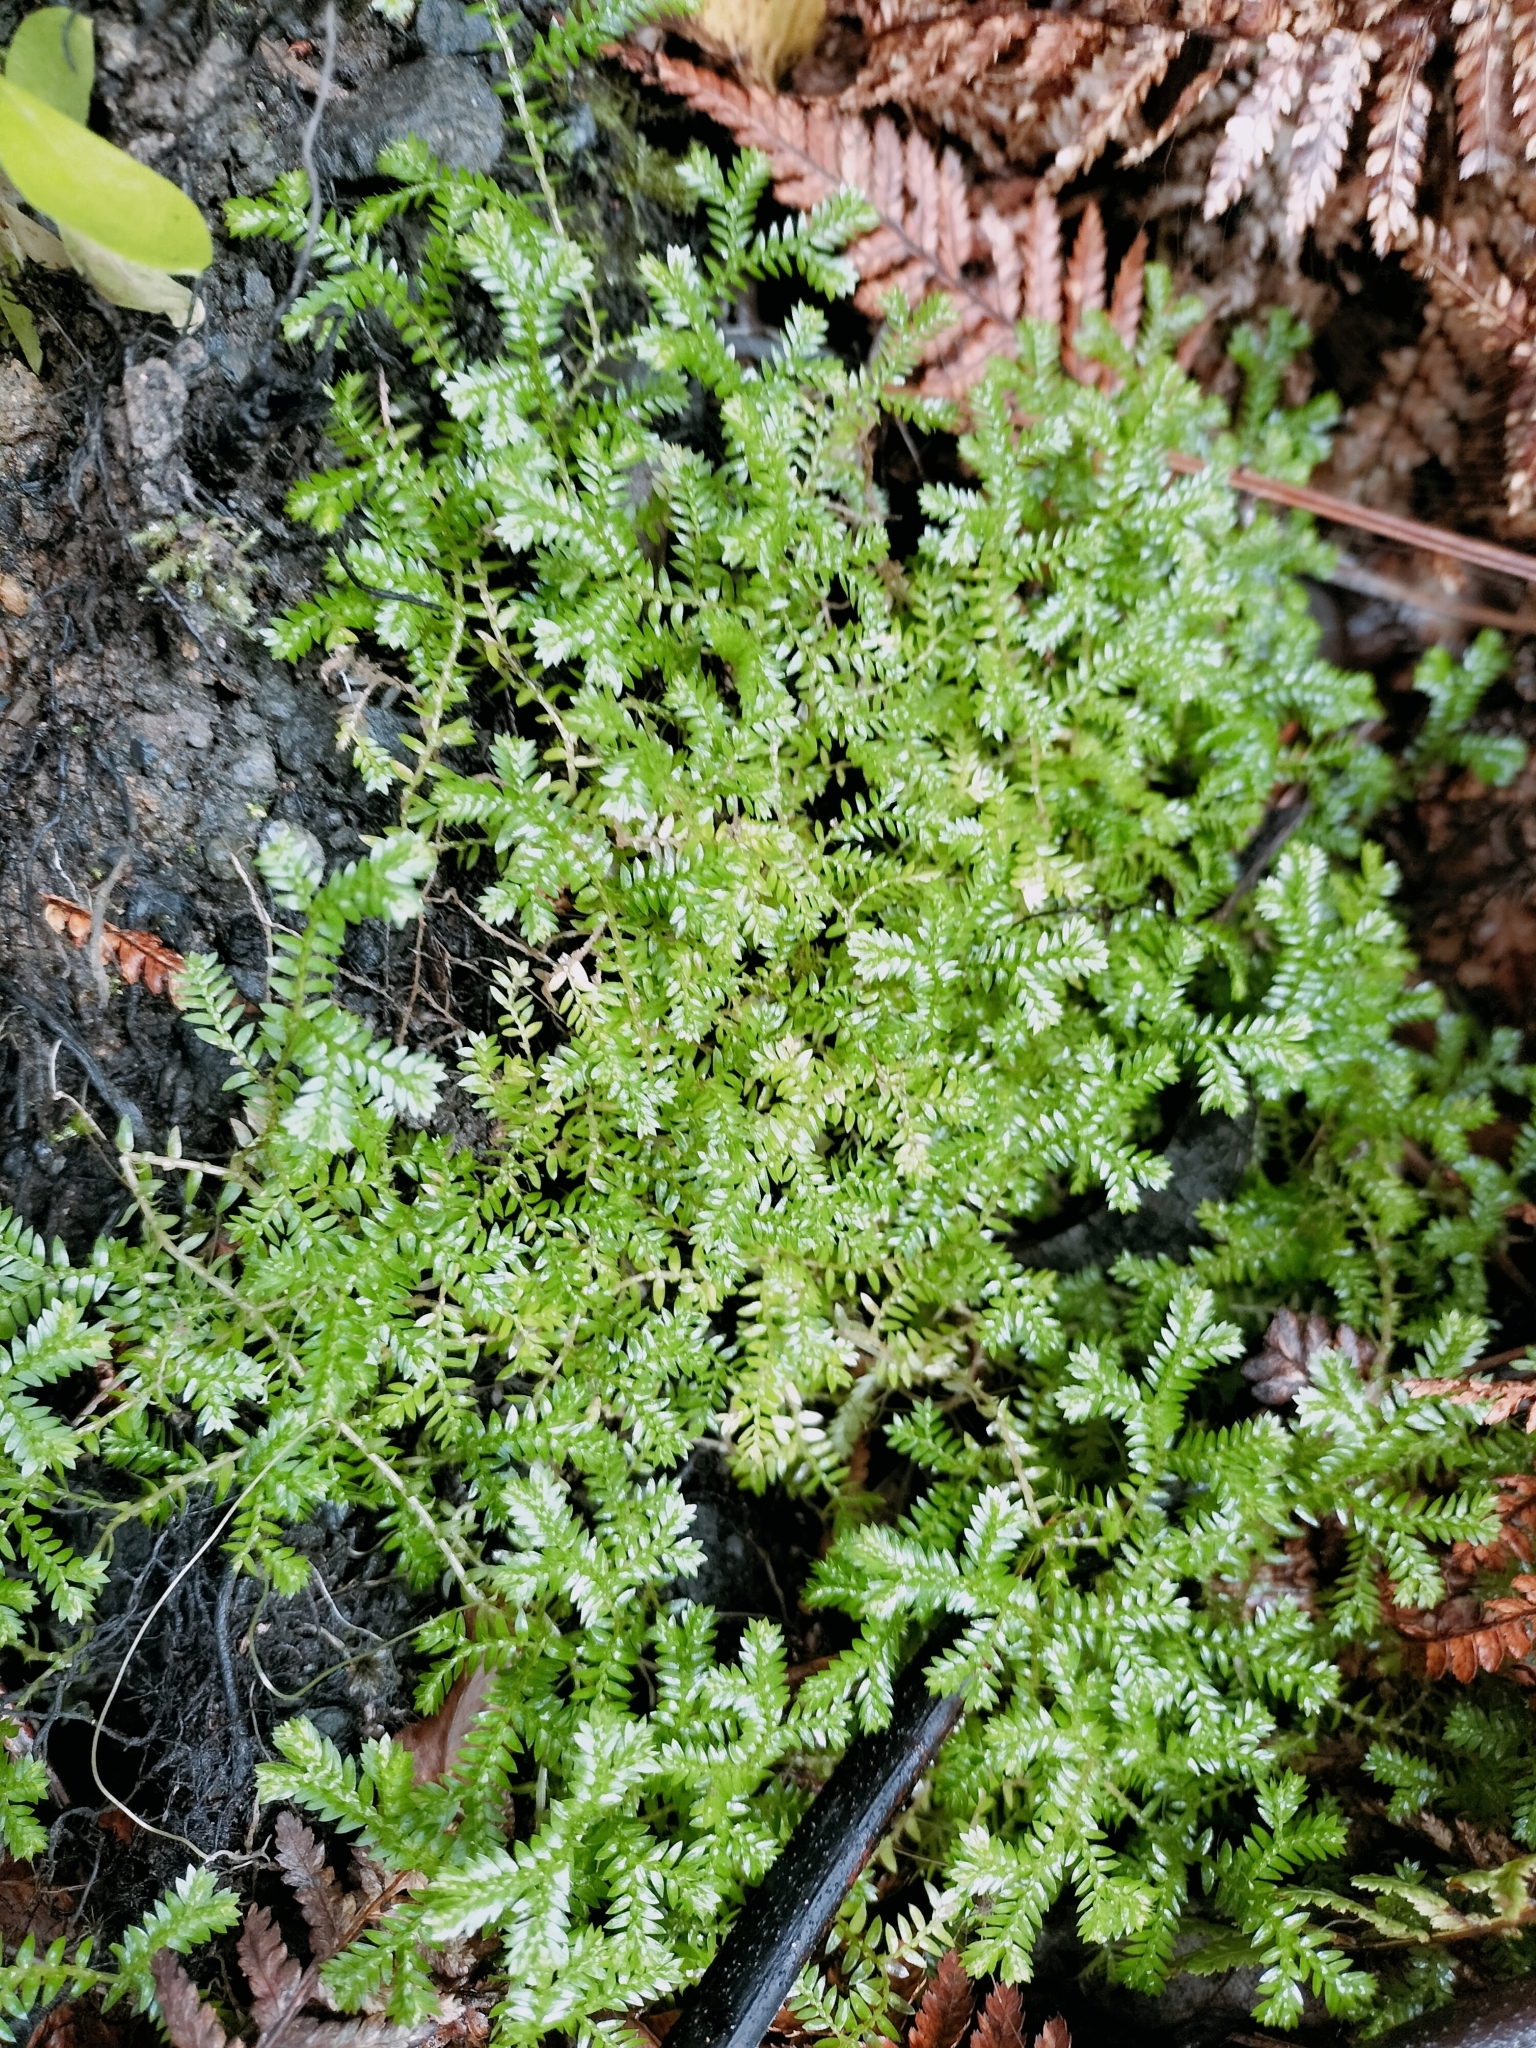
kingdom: Plantae
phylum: Tracheophyta
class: Lycopodiopsida
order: Selaginellales
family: Selaginellaceae
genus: Selaginella
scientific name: Selaginella kraussiana
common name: Krauss' spikemoss
